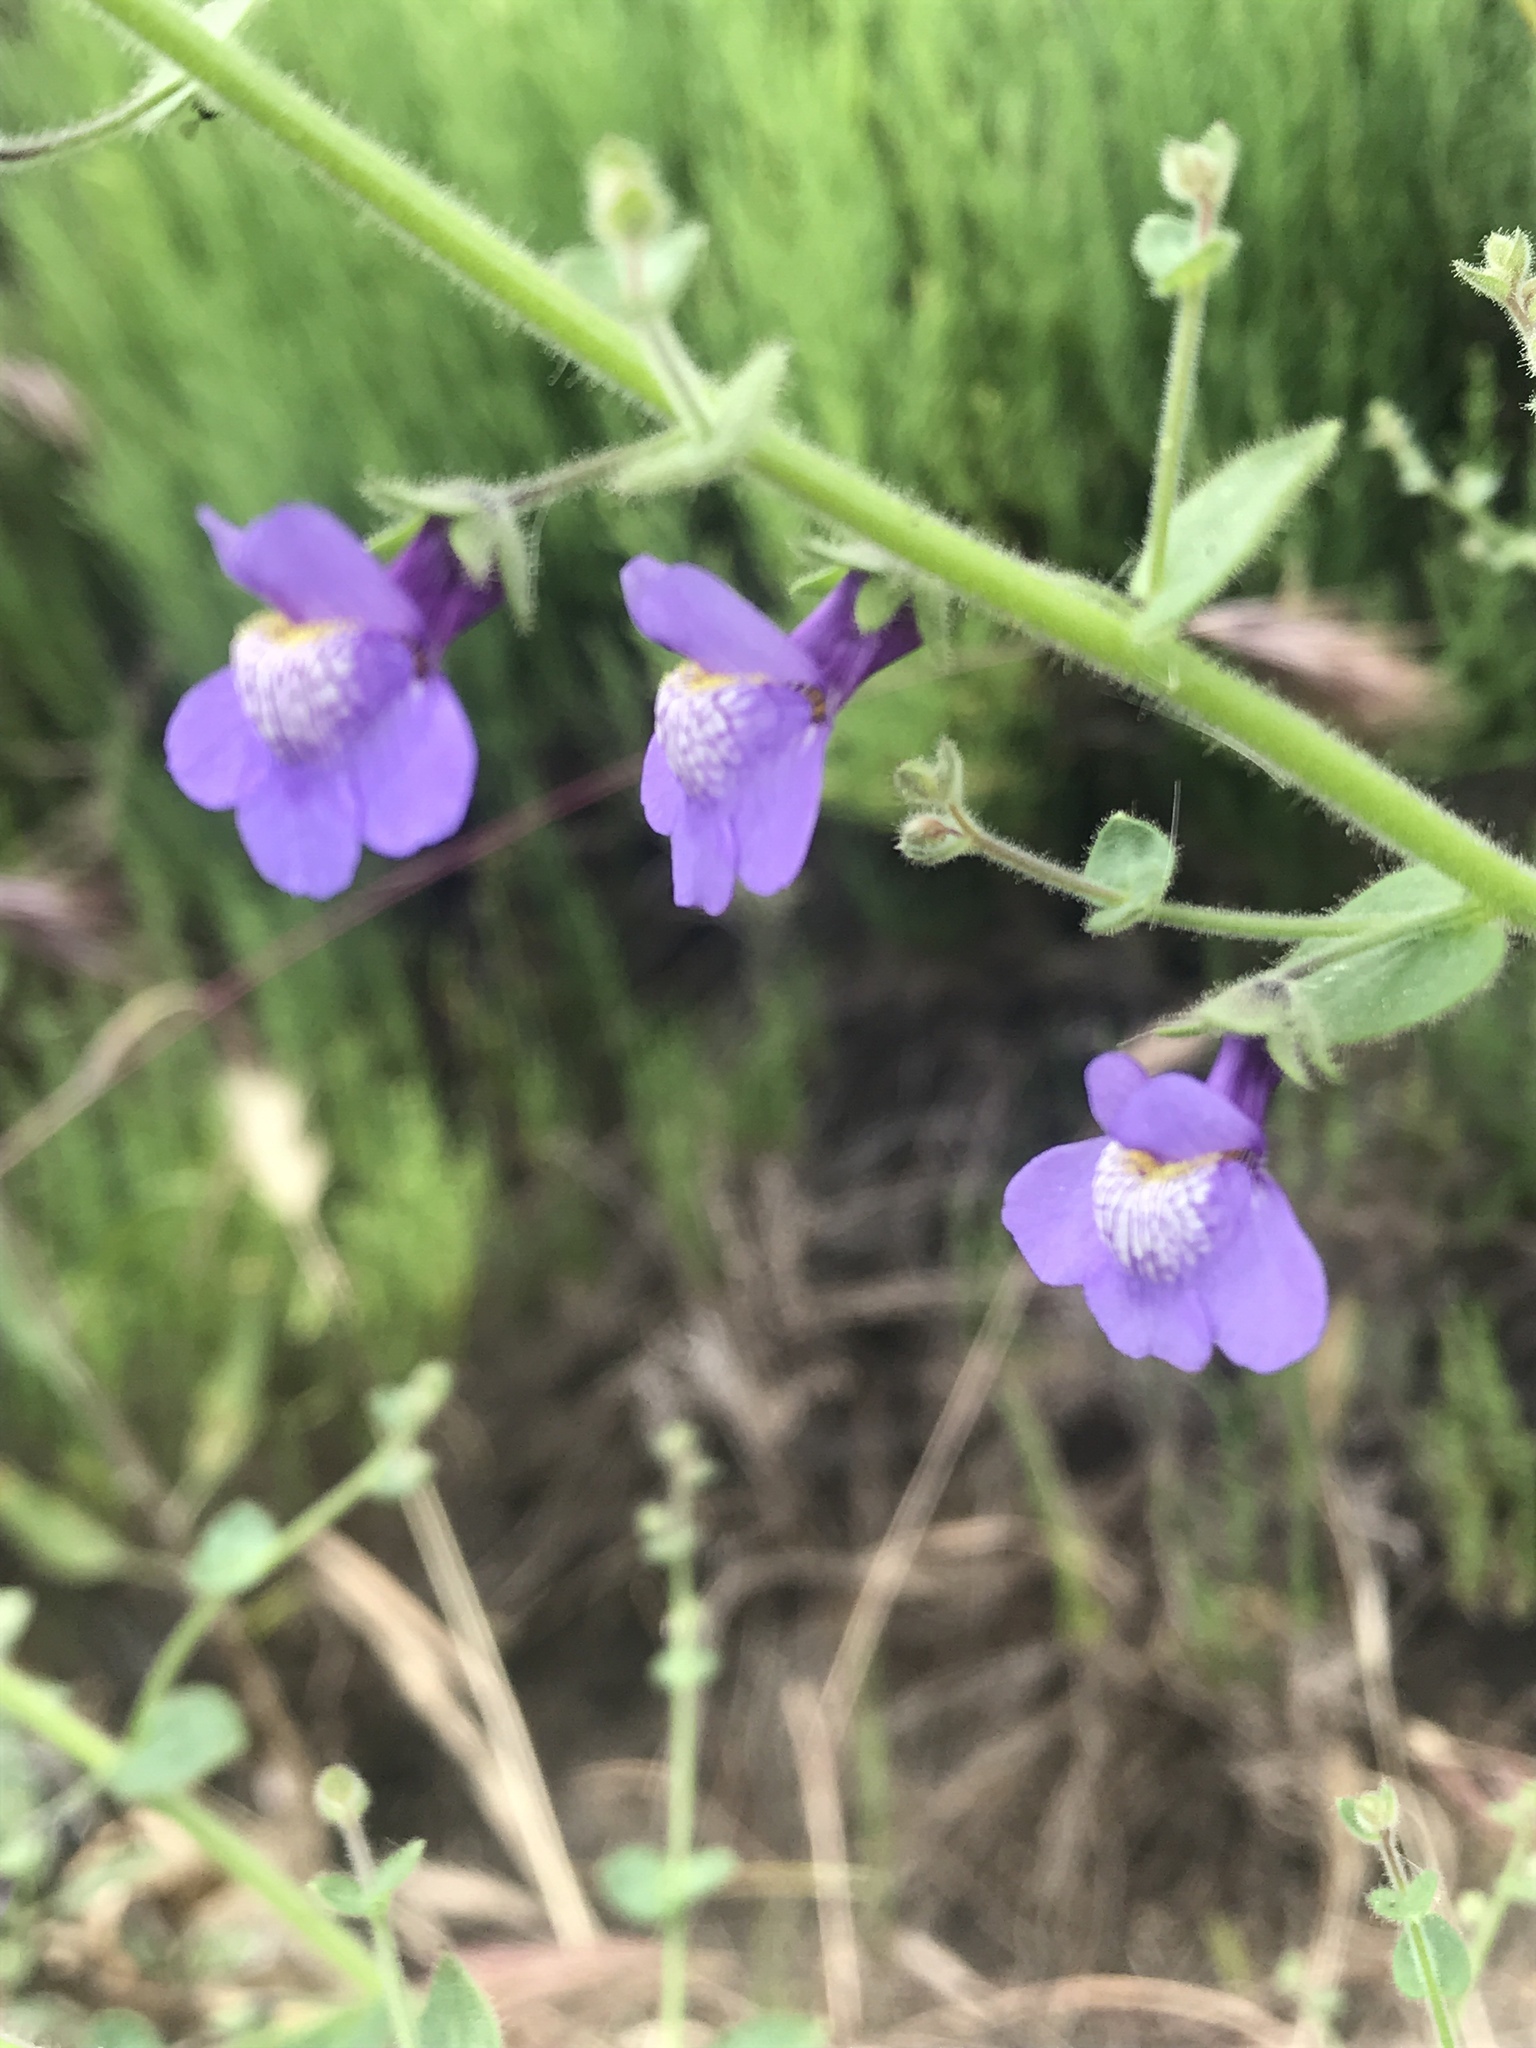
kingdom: Plantae
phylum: Tracheophyta
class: Magnoliopsida
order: Lamiales
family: Plantaginaceae
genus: Sairocarpus
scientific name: Sairocarpus nuttallianus
